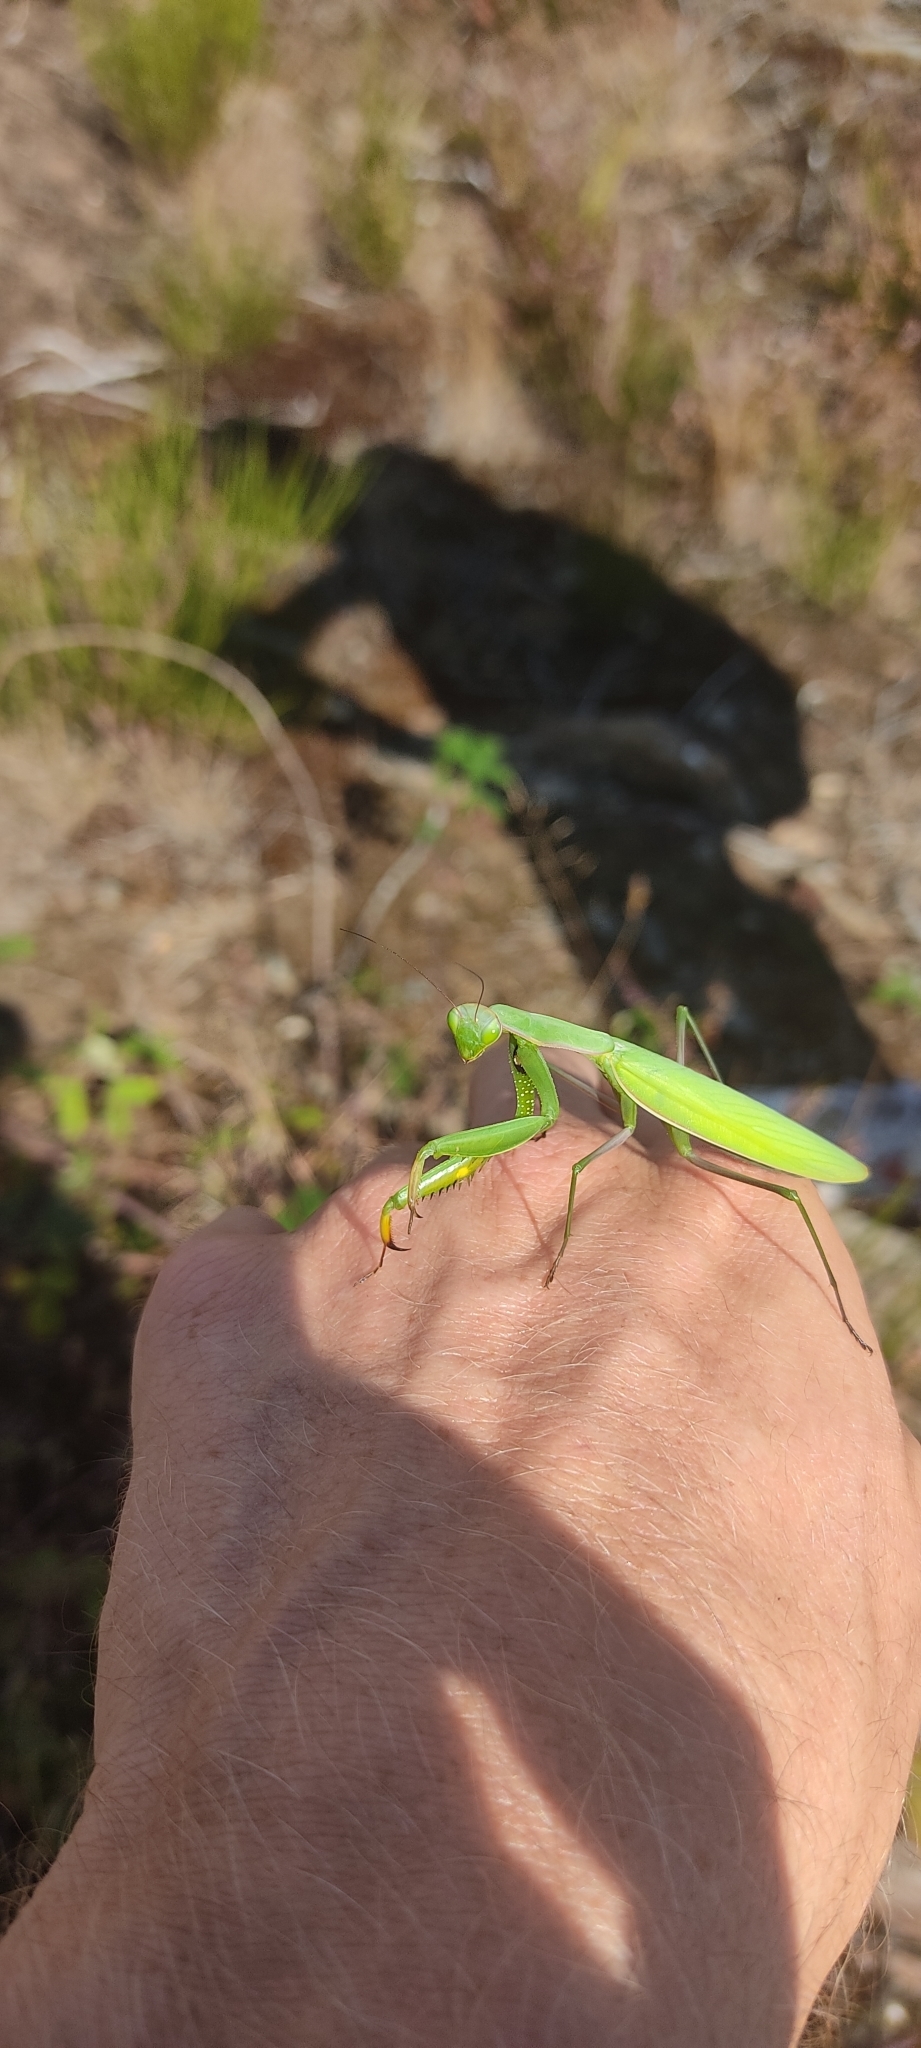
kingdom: Animalia
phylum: Arthropoda
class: Insecta
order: Mantodea
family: Mantidae
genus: Mantis
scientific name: Mantis religiosa
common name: Praying mantis
